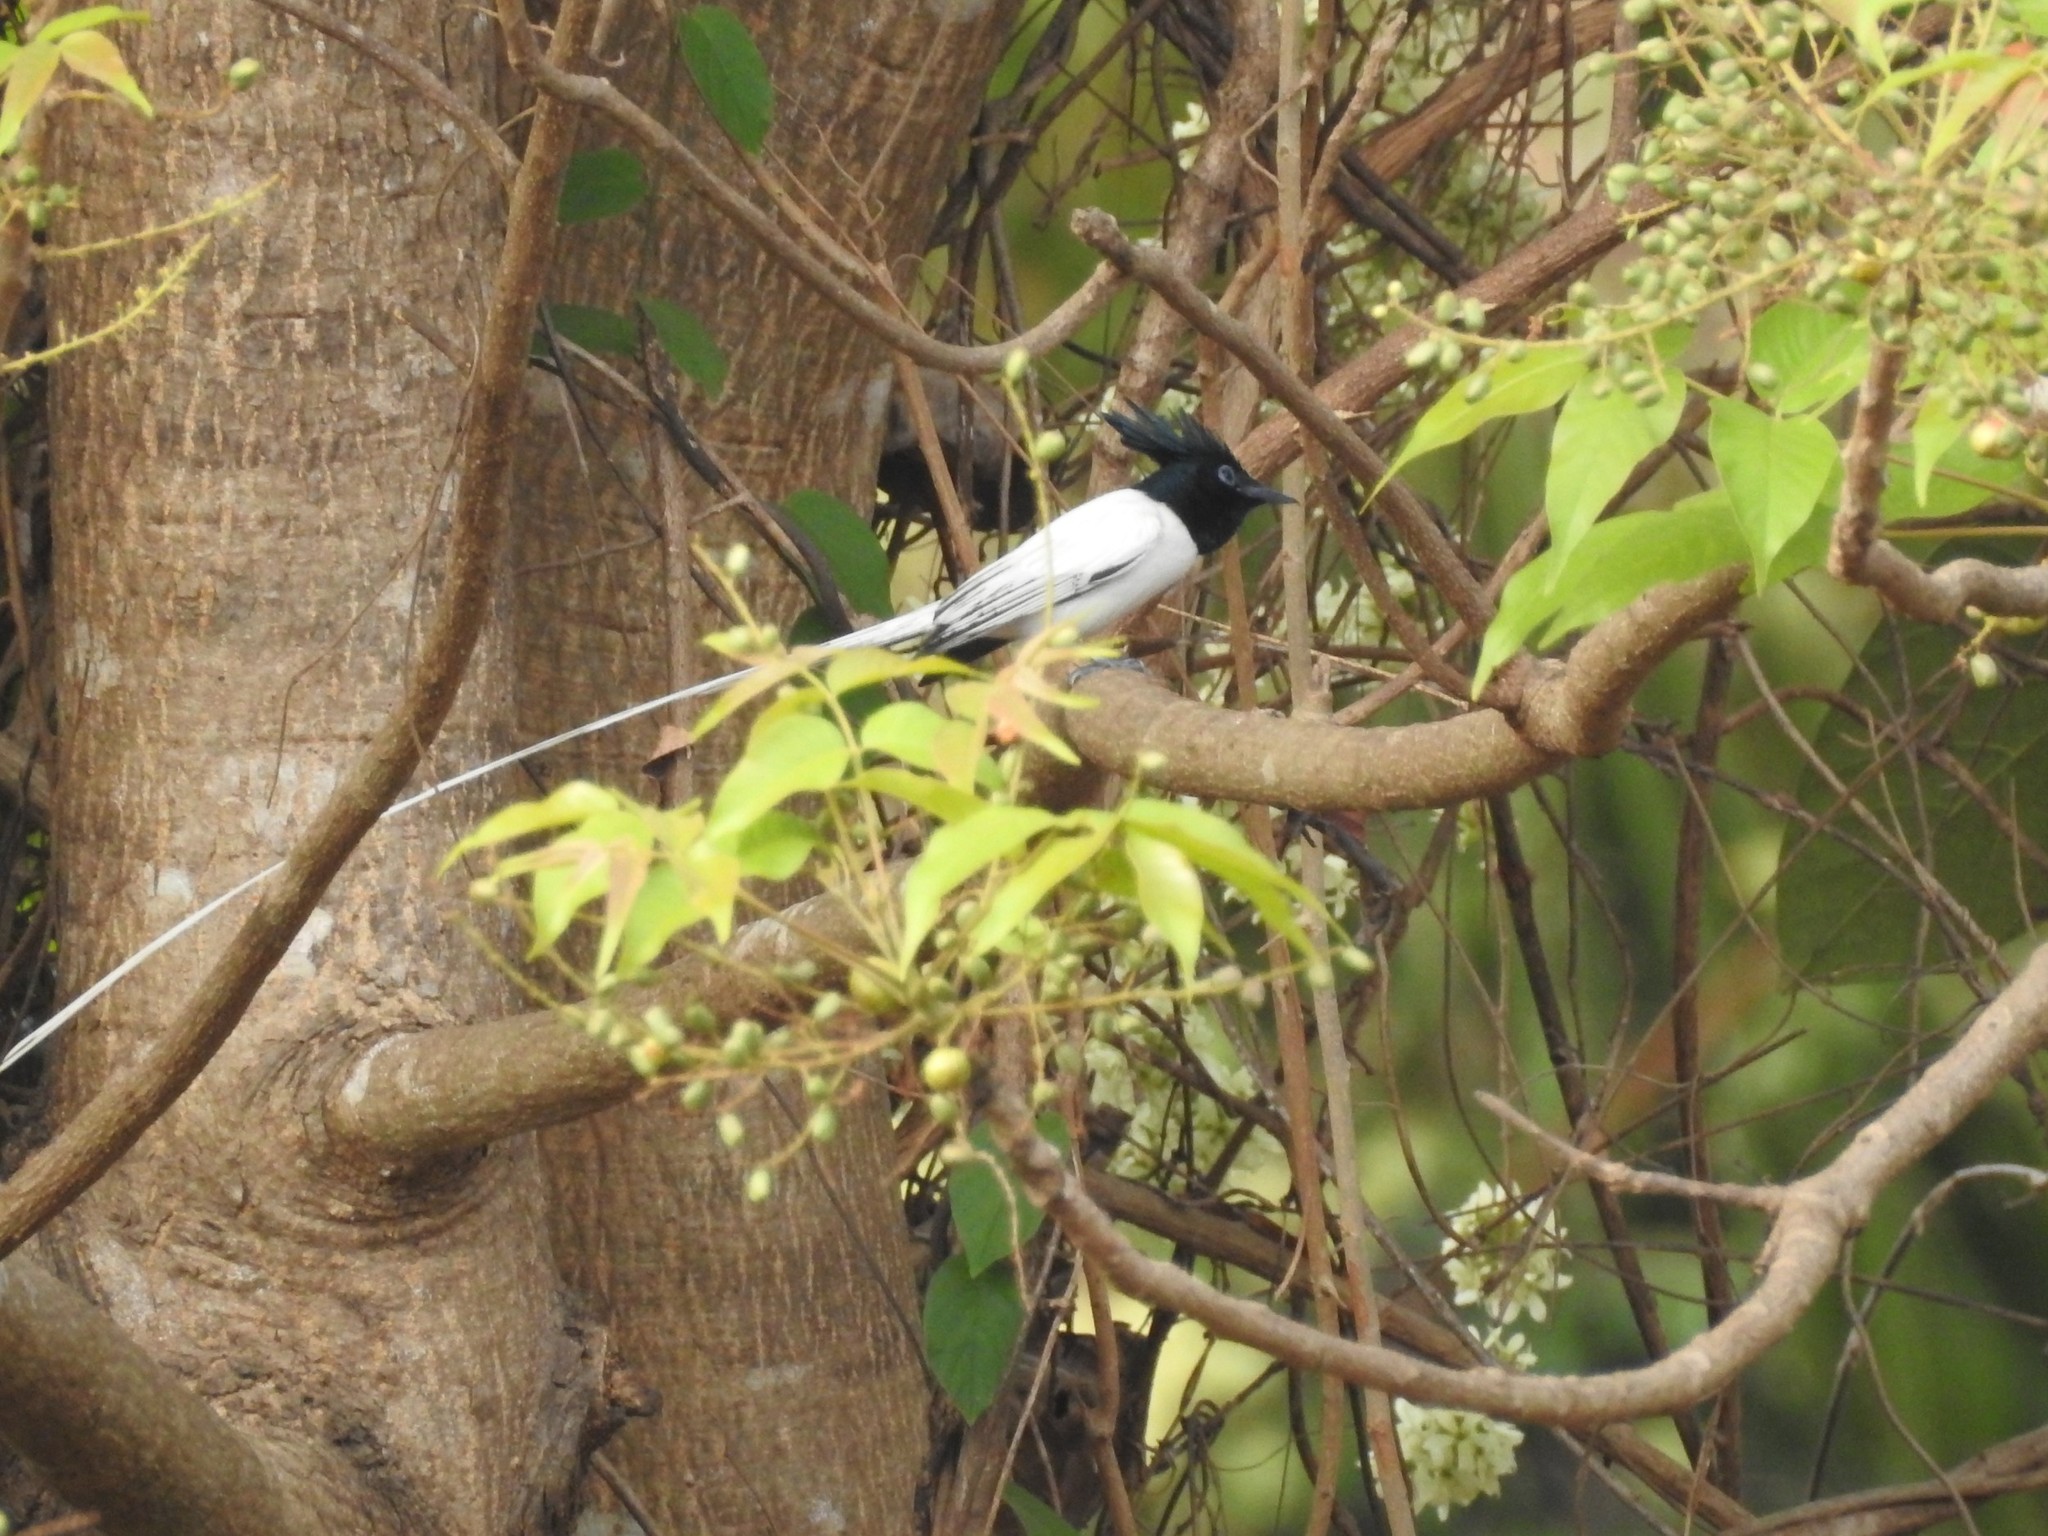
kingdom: Animalia
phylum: Chordata
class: Aves
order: Passeriformes
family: Monarchidae
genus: Terpsiphone
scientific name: Terpsiphone paradisi
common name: Indian paradise flycatcher
